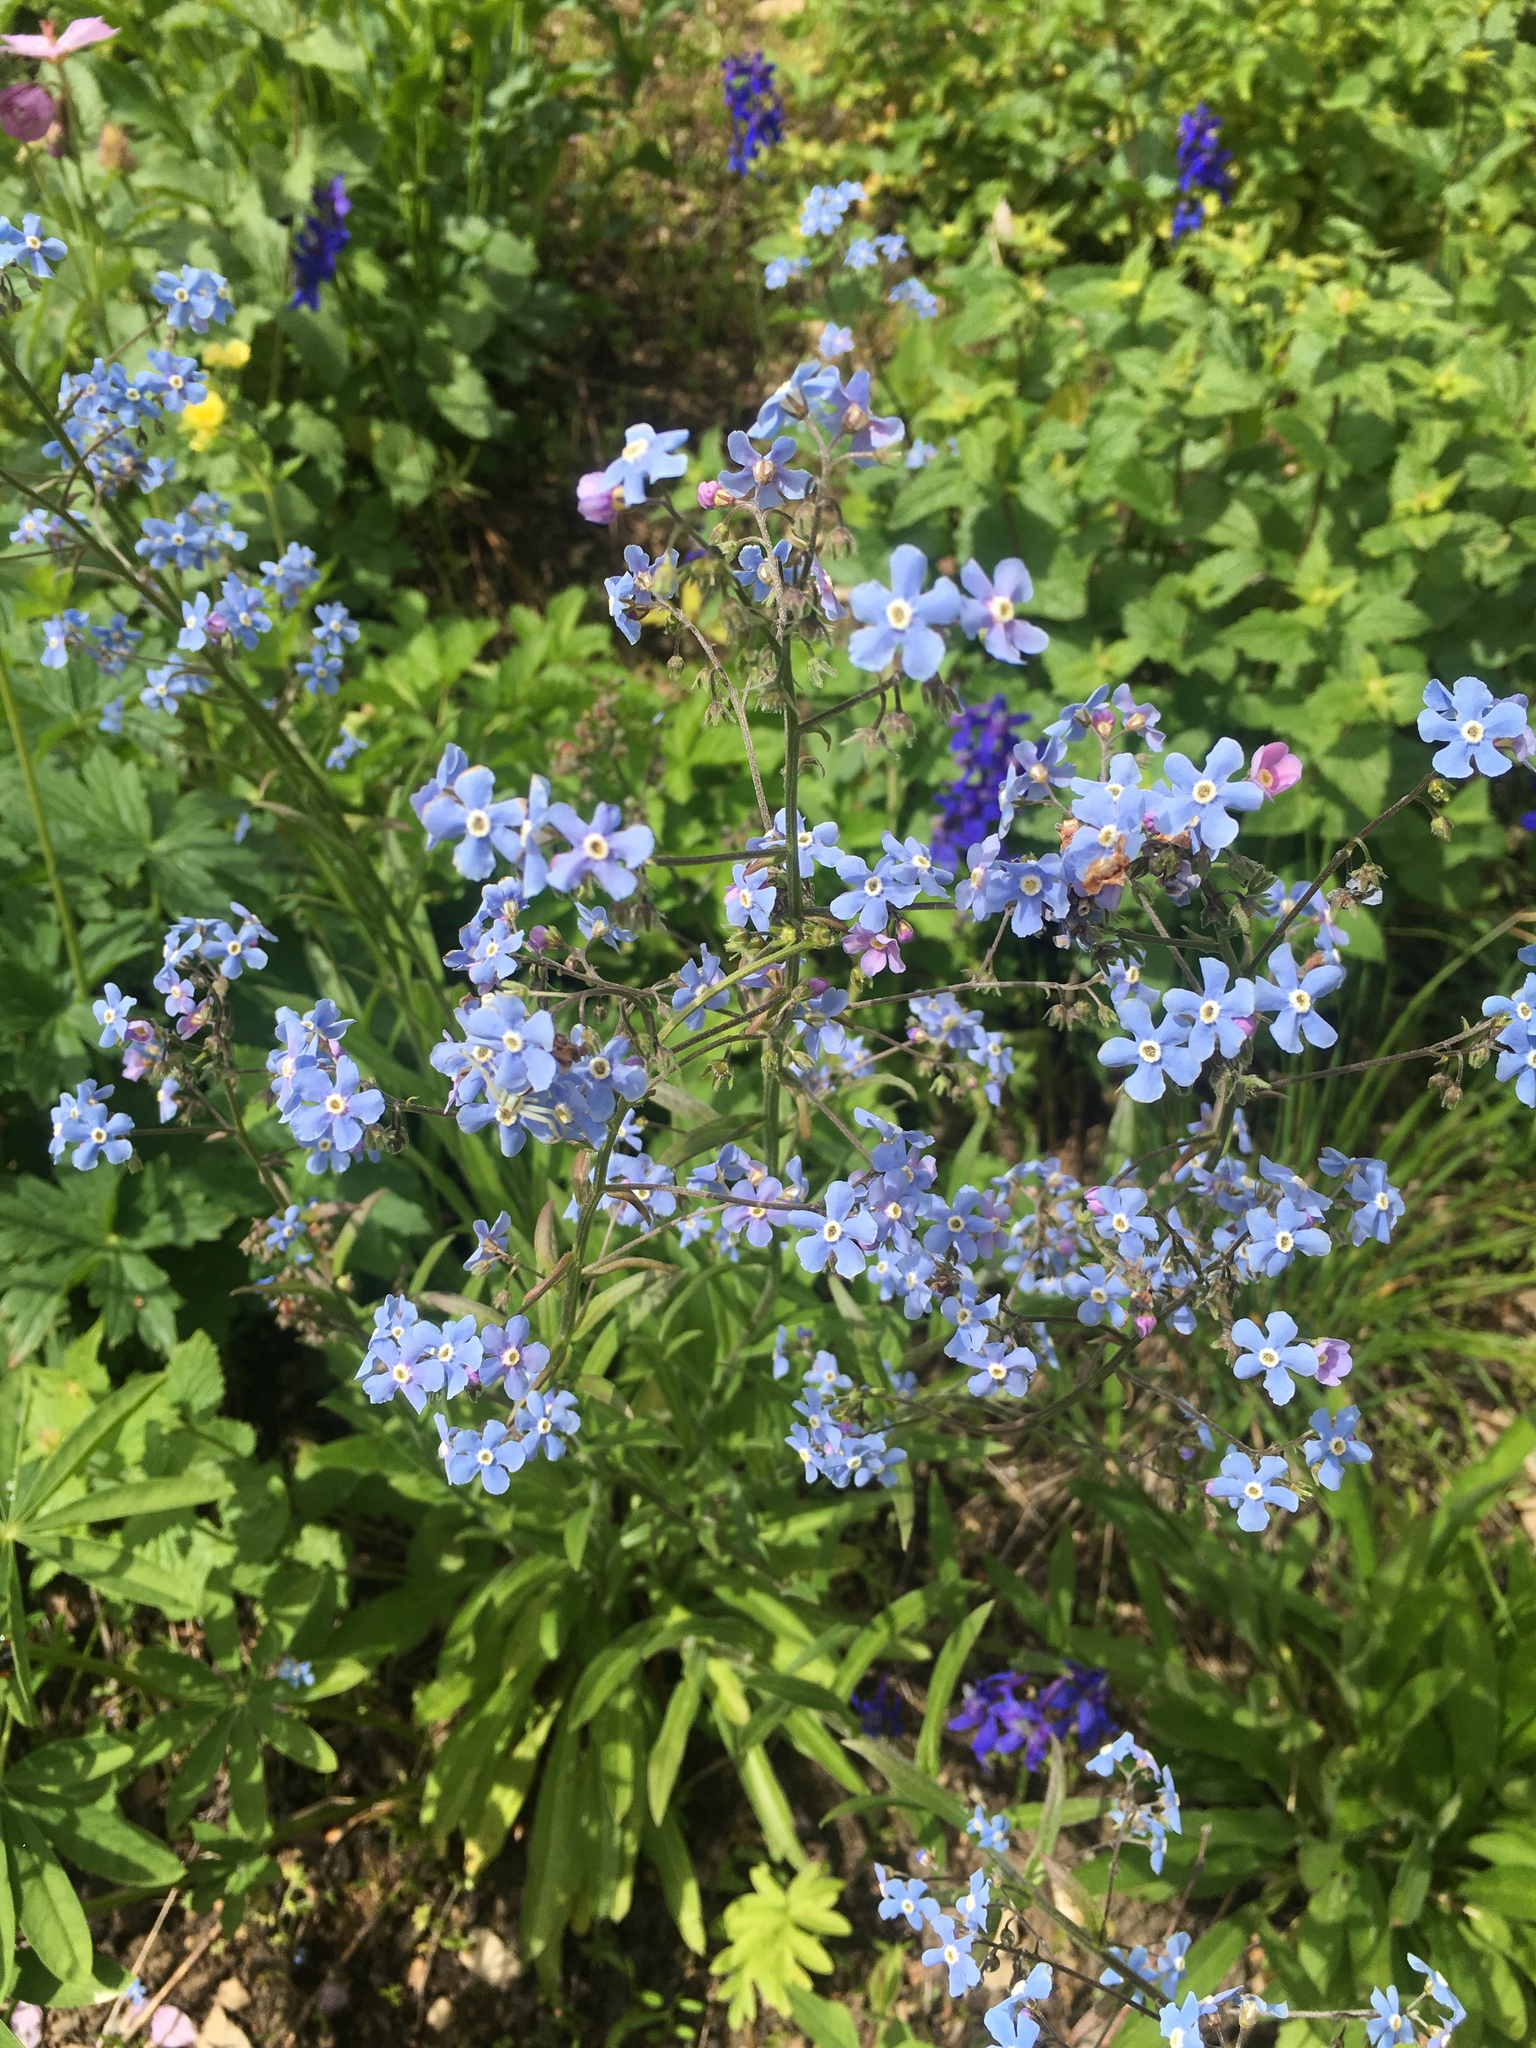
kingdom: Plantae
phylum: Tracheophyta
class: Magnoliopsida
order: Boraginales
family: Boraginaceae
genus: Hackelia
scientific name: Hackelia floribunda
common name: Large-flowered stickseed
